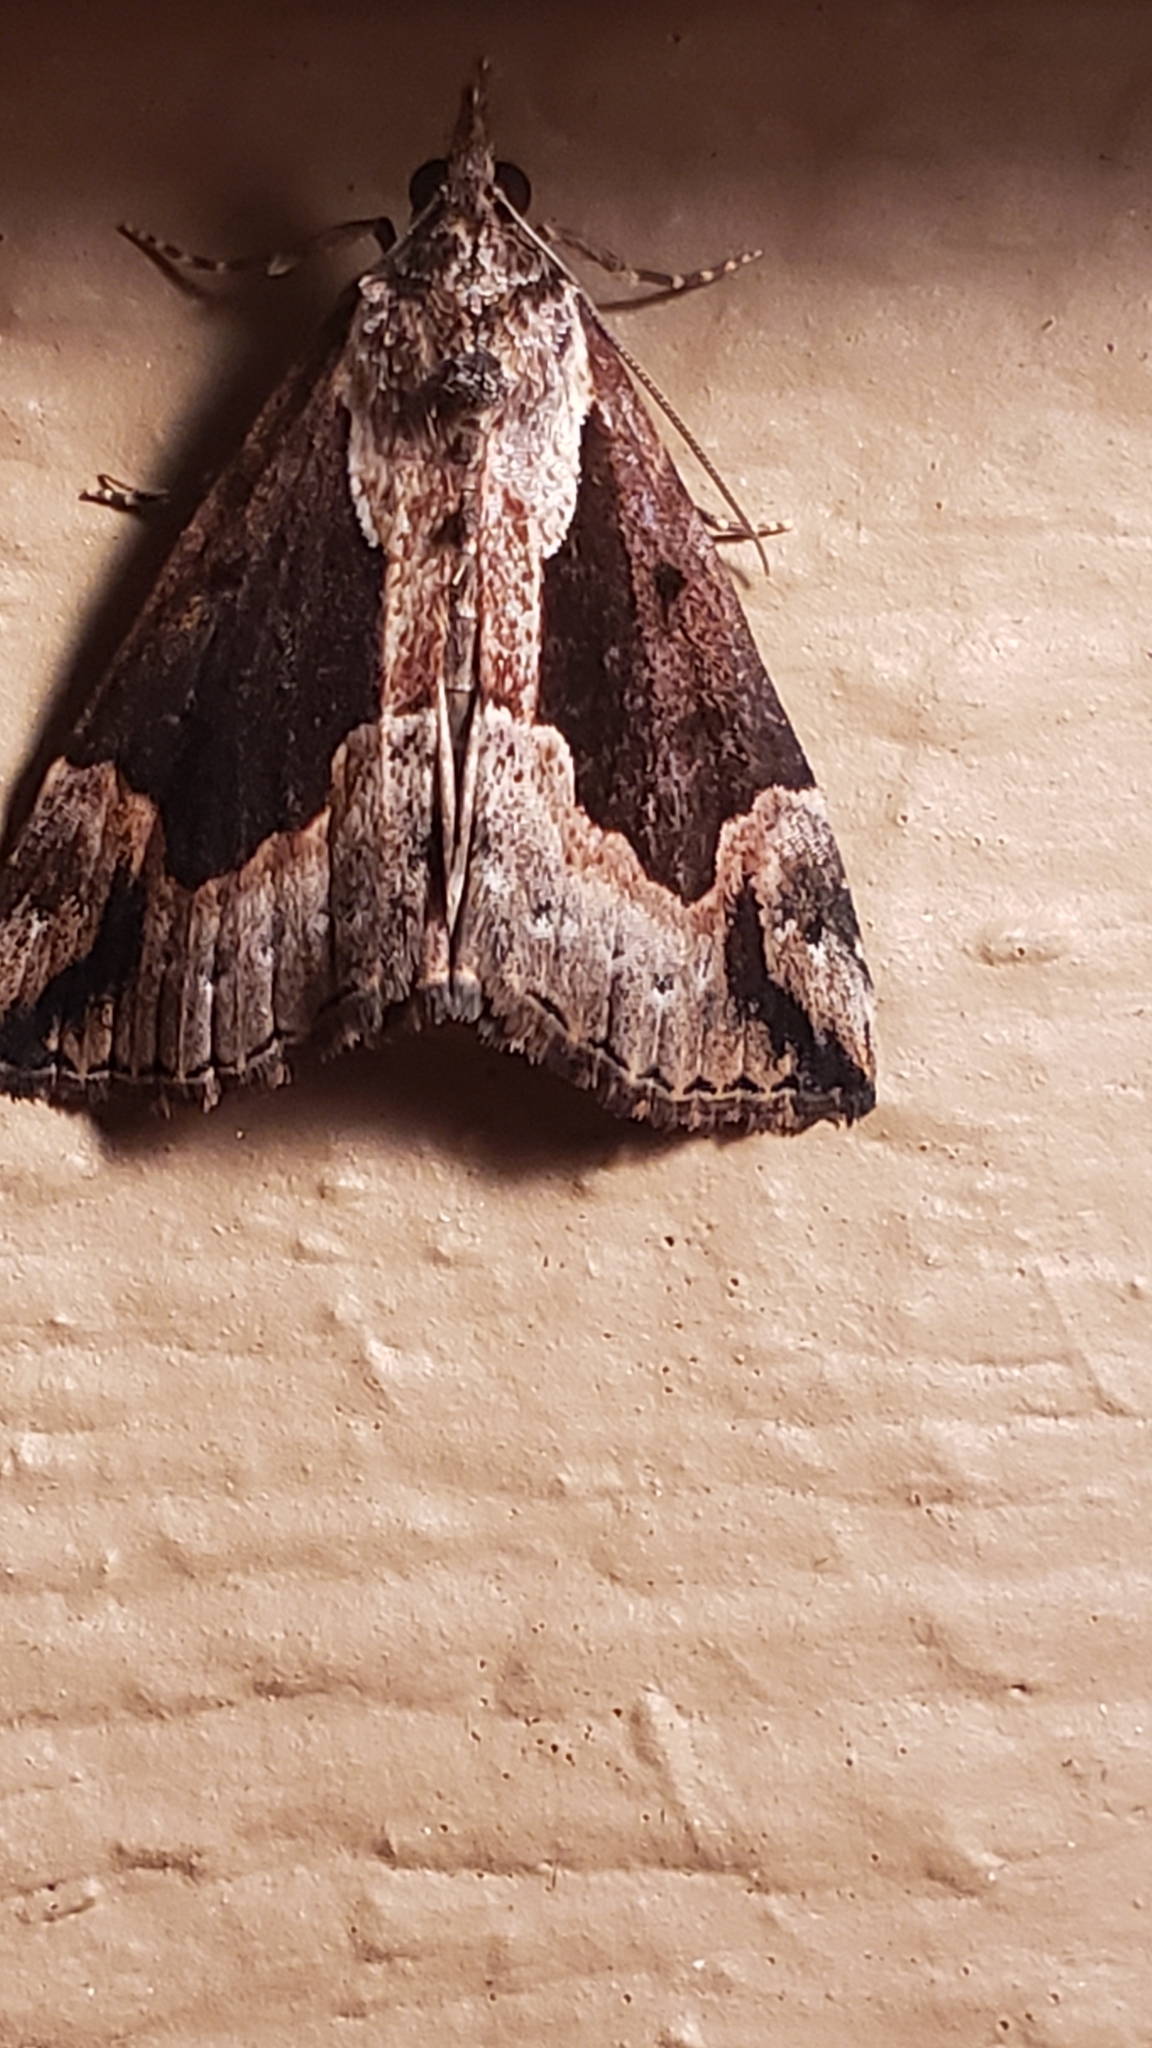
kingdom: Animalia
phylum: Arthropoda
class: Insecta
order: Lepidoptera
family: Erebidae
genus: Hypena
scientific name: Hypena baltimoralis
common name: Baltimore snout
